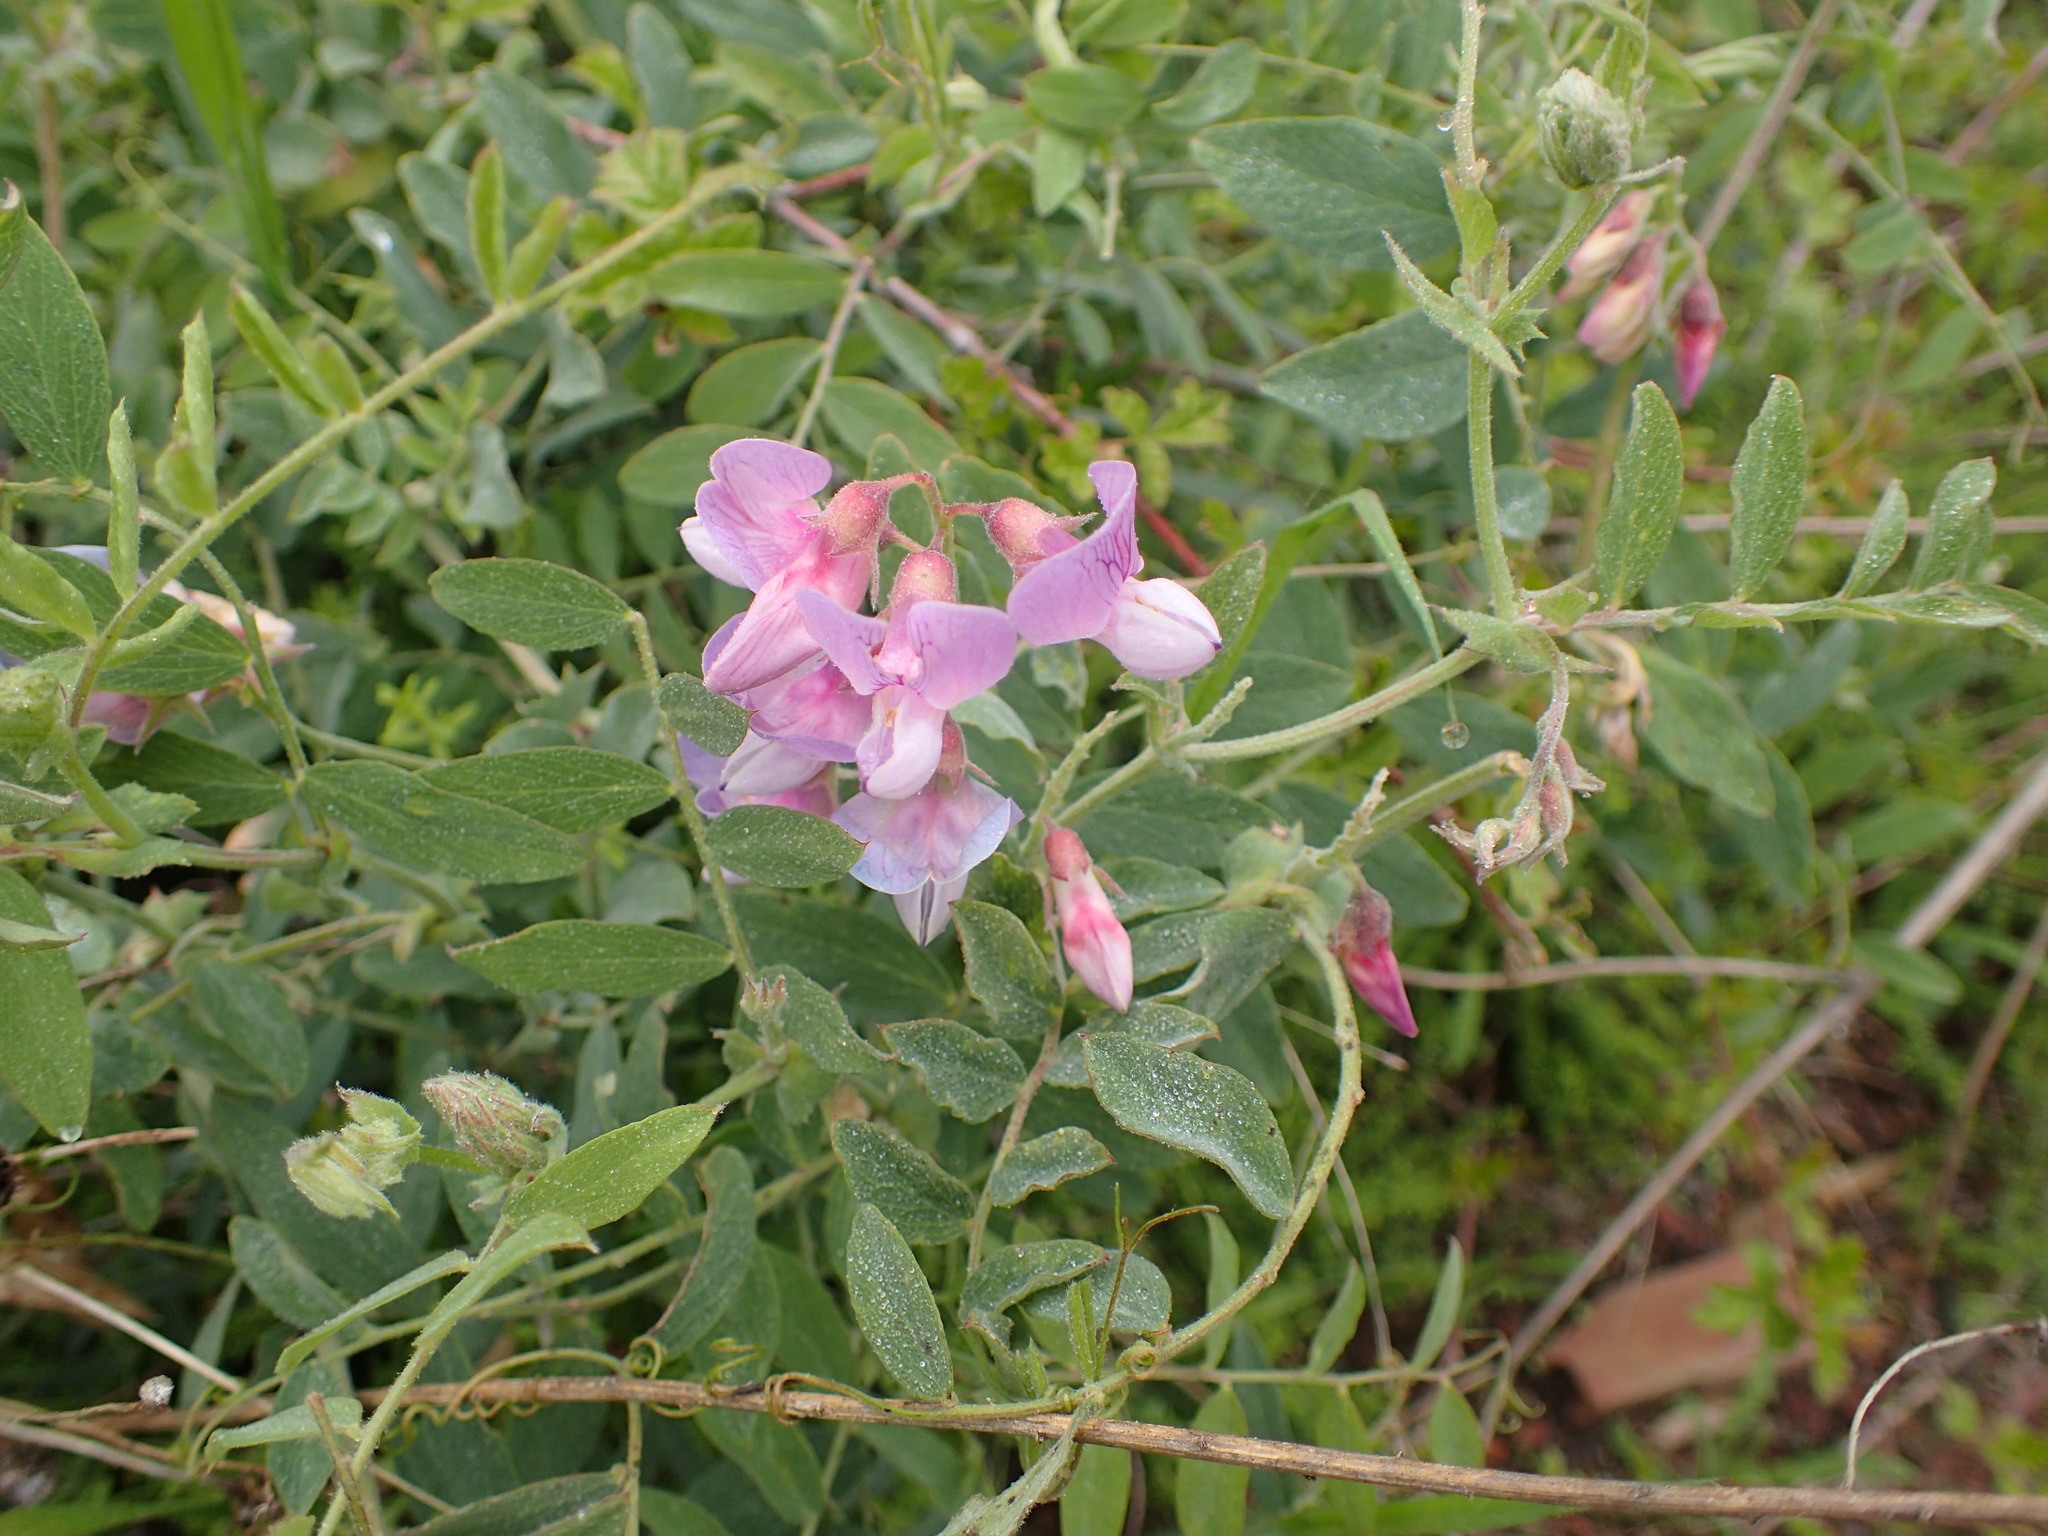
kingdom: Plantae
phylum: Tracheophyta
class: Magnoliopsida
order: Fabales
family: Fabaceae
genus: Lathyrus
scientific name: Lathyrus vestitus
